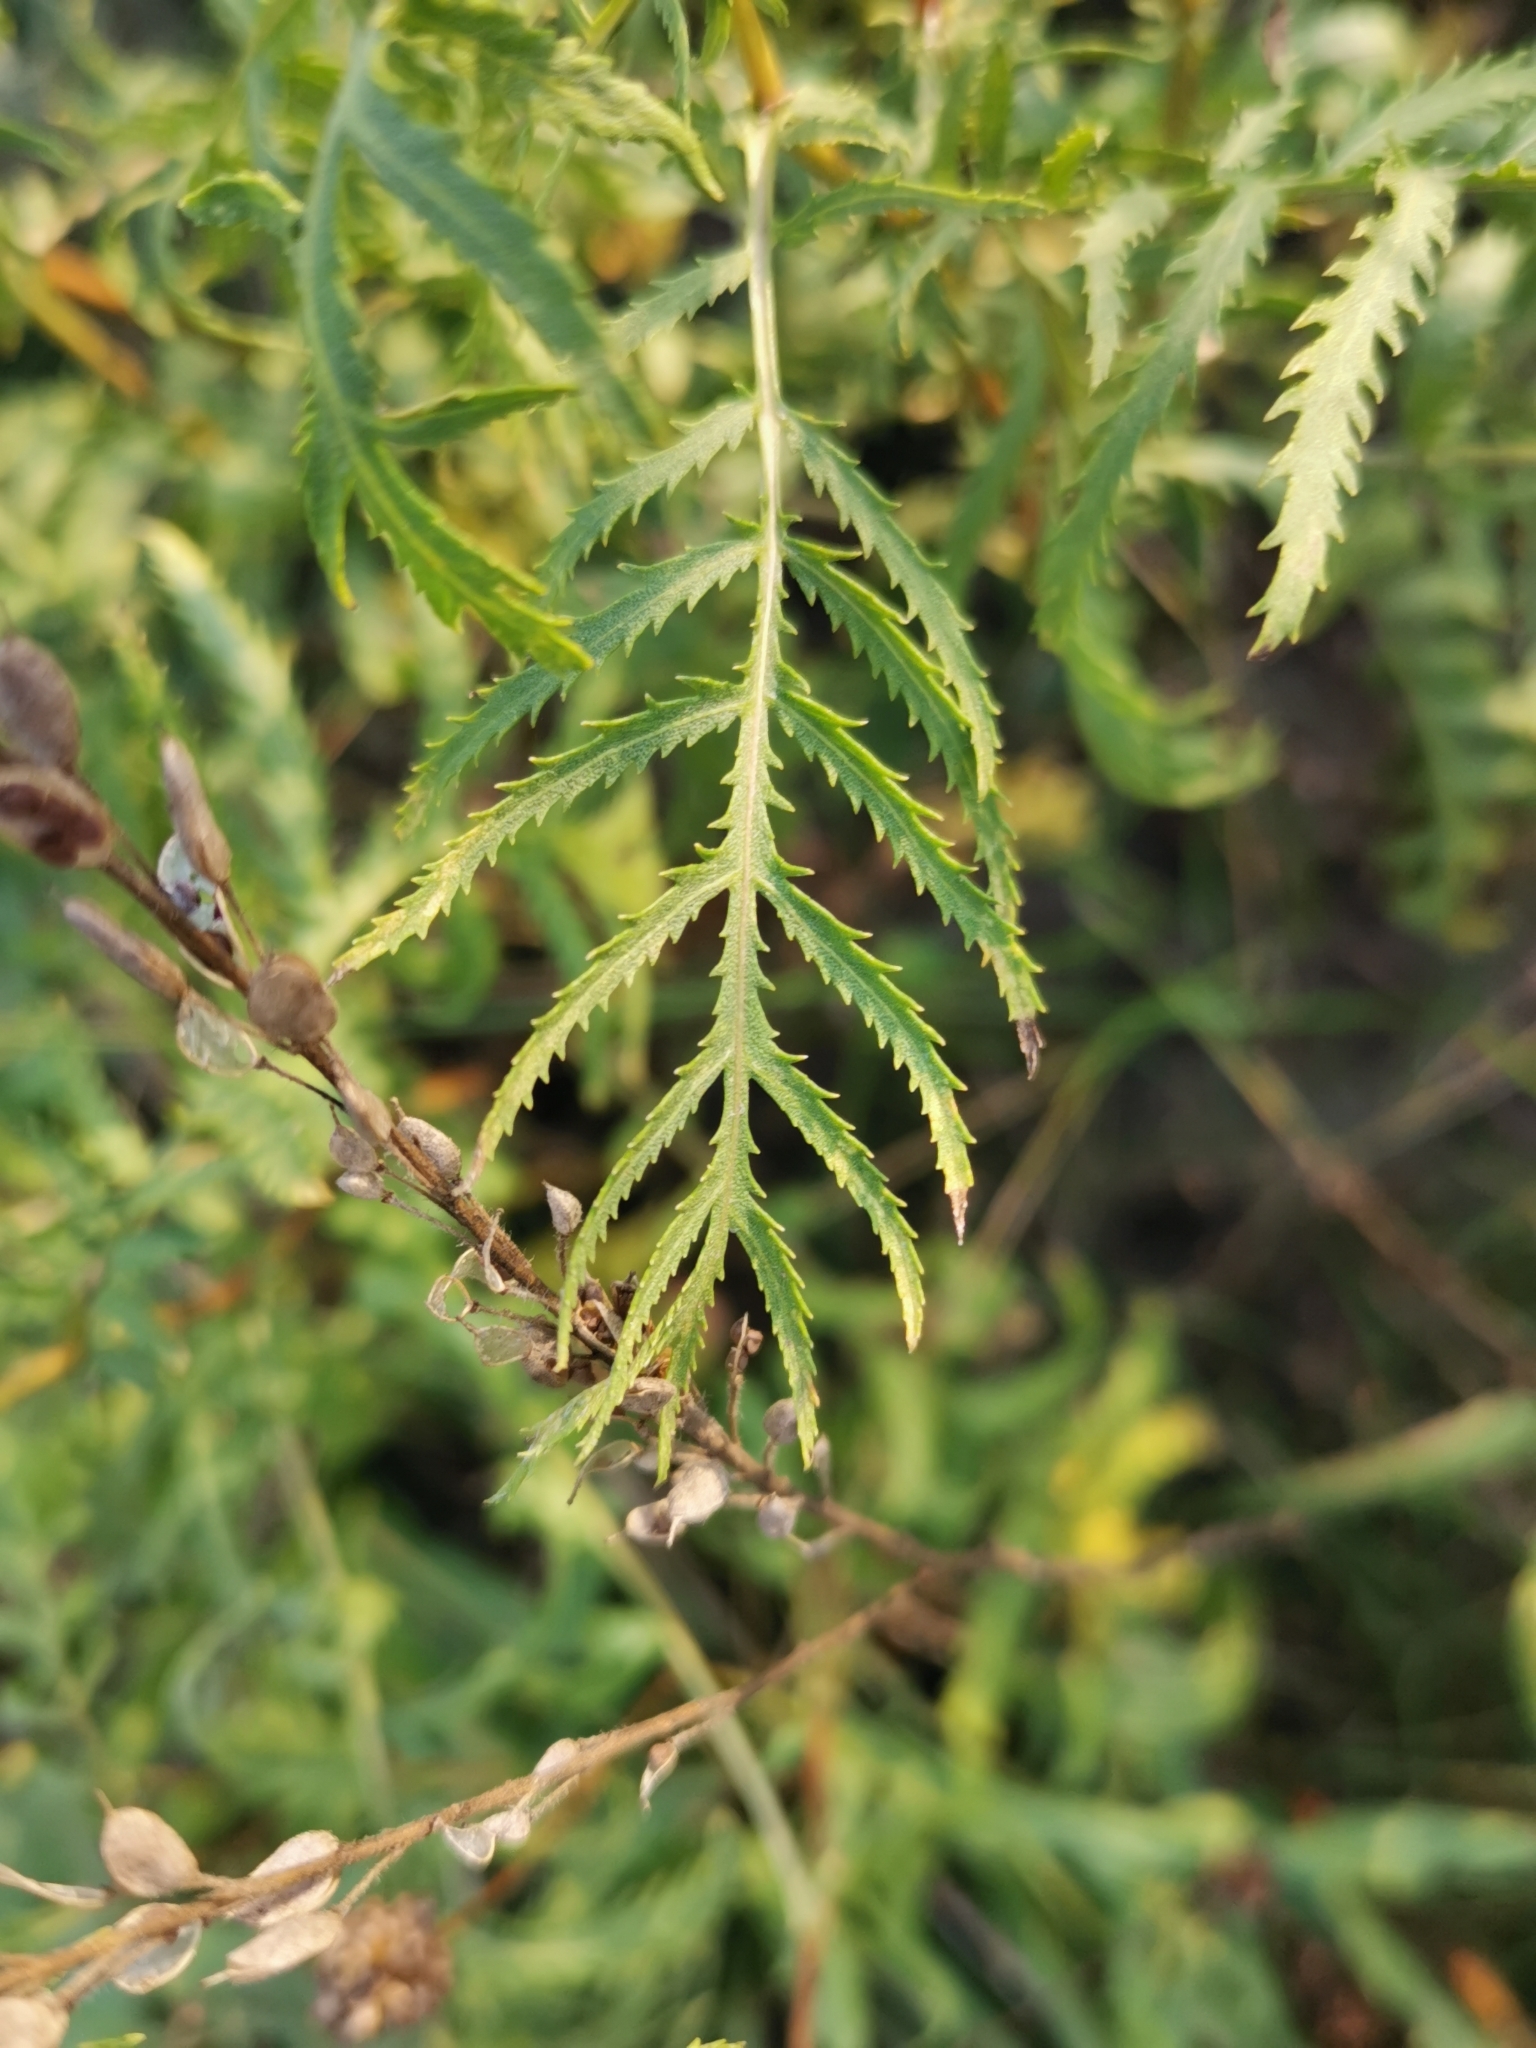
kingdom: Plantae
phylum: Tracheophyta
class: Magnoliopsida
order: Asterales
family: Asteraceae
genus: Tanacetum
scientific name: Tanacetum vulgare
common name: Common tansy
